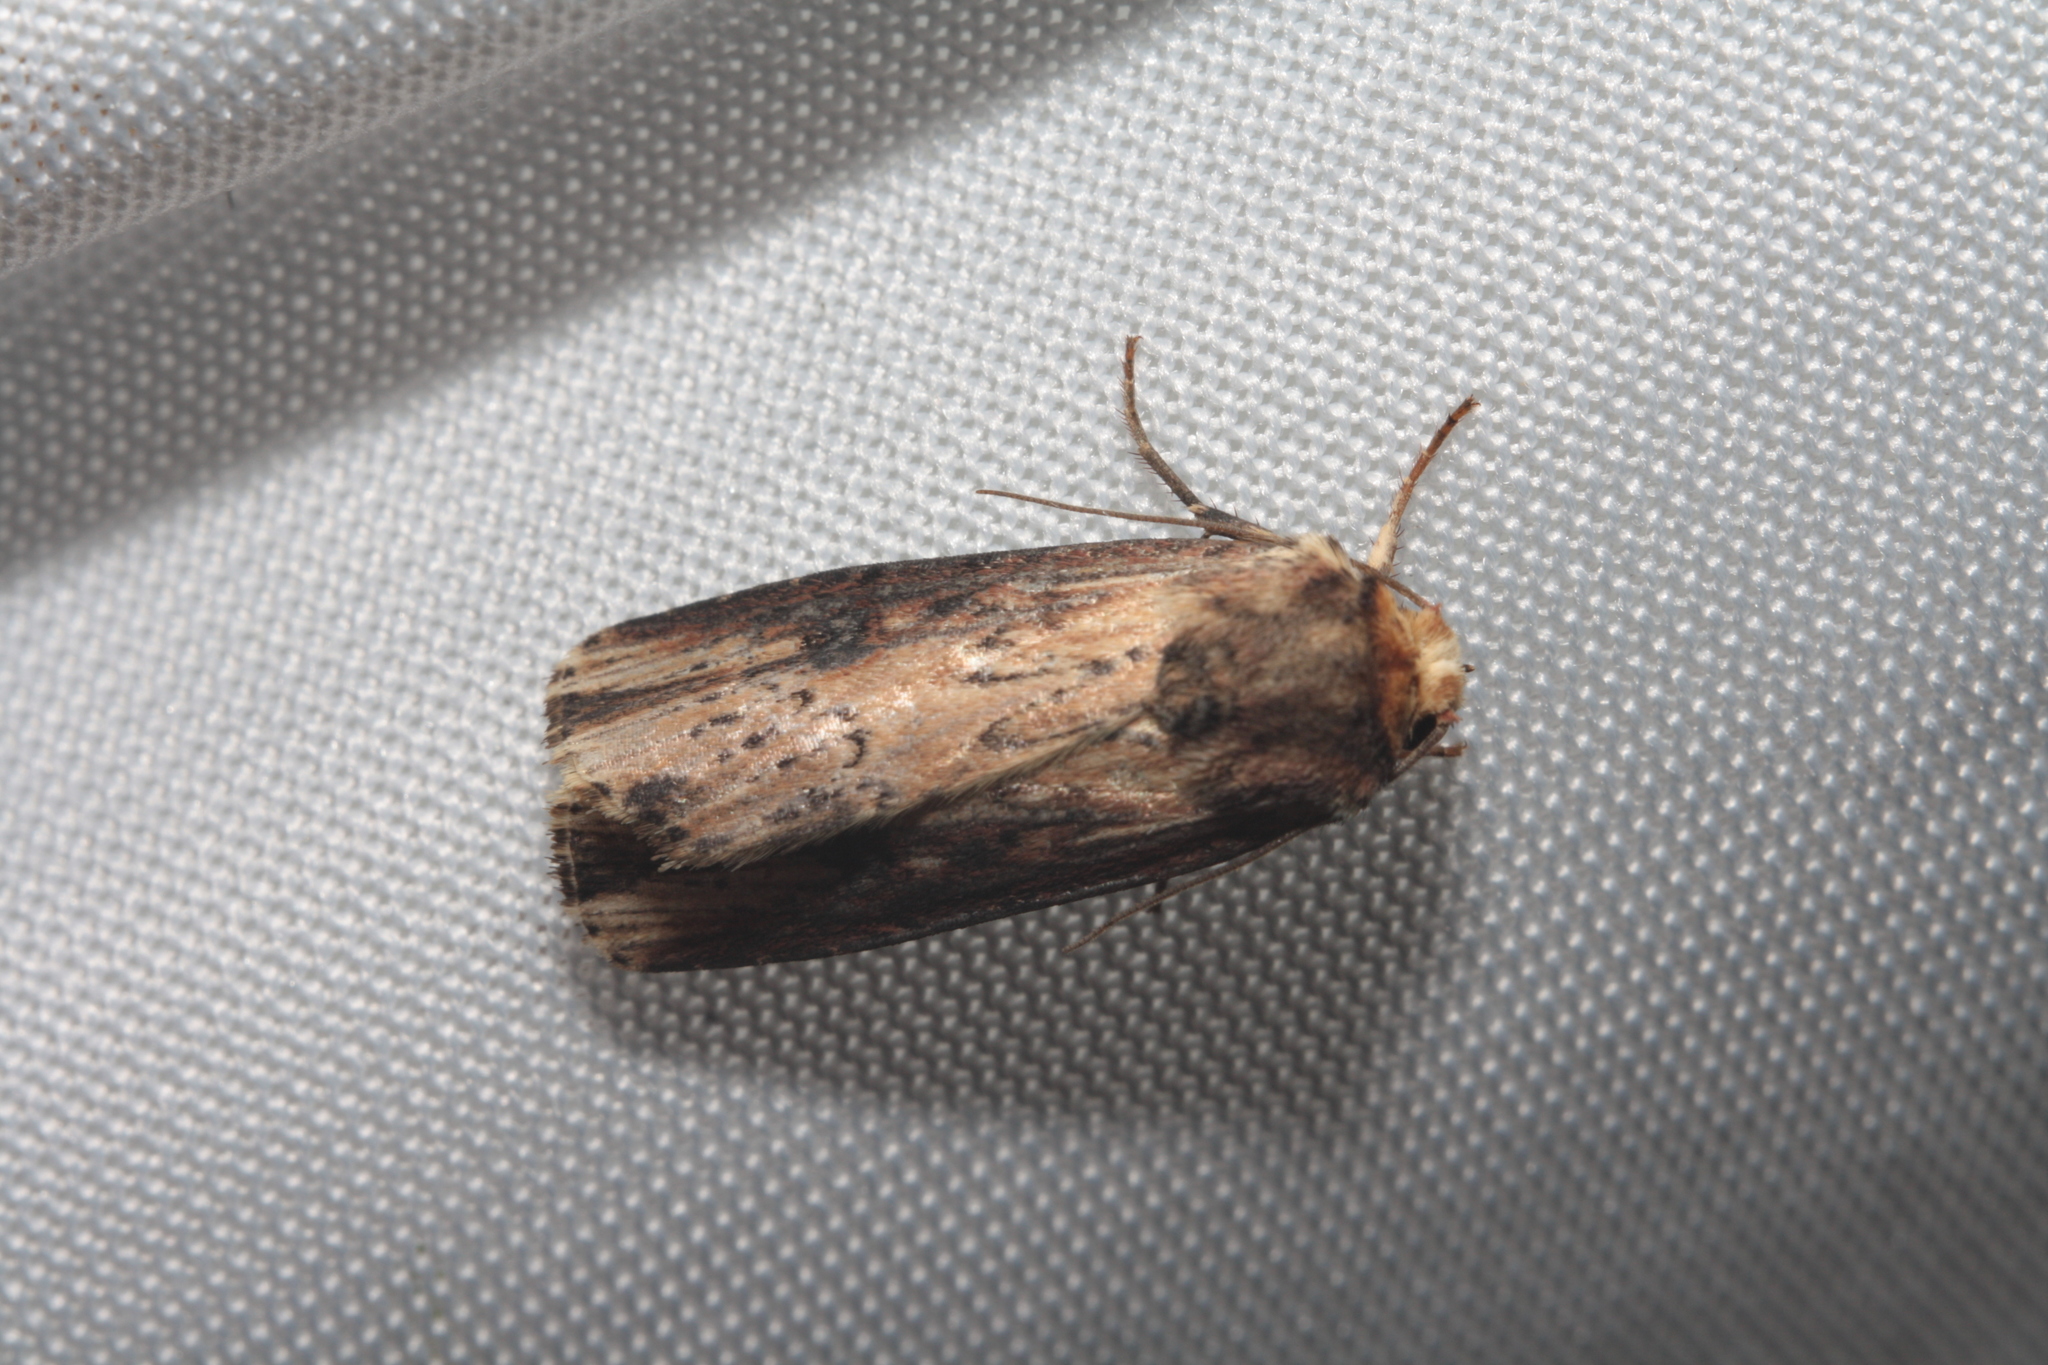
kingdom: Animalia
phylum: Arthropoda
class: Insecta
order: Lepidoptera
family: Noctuidae
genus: Axylia
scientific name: Axylia putris
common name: Flame
